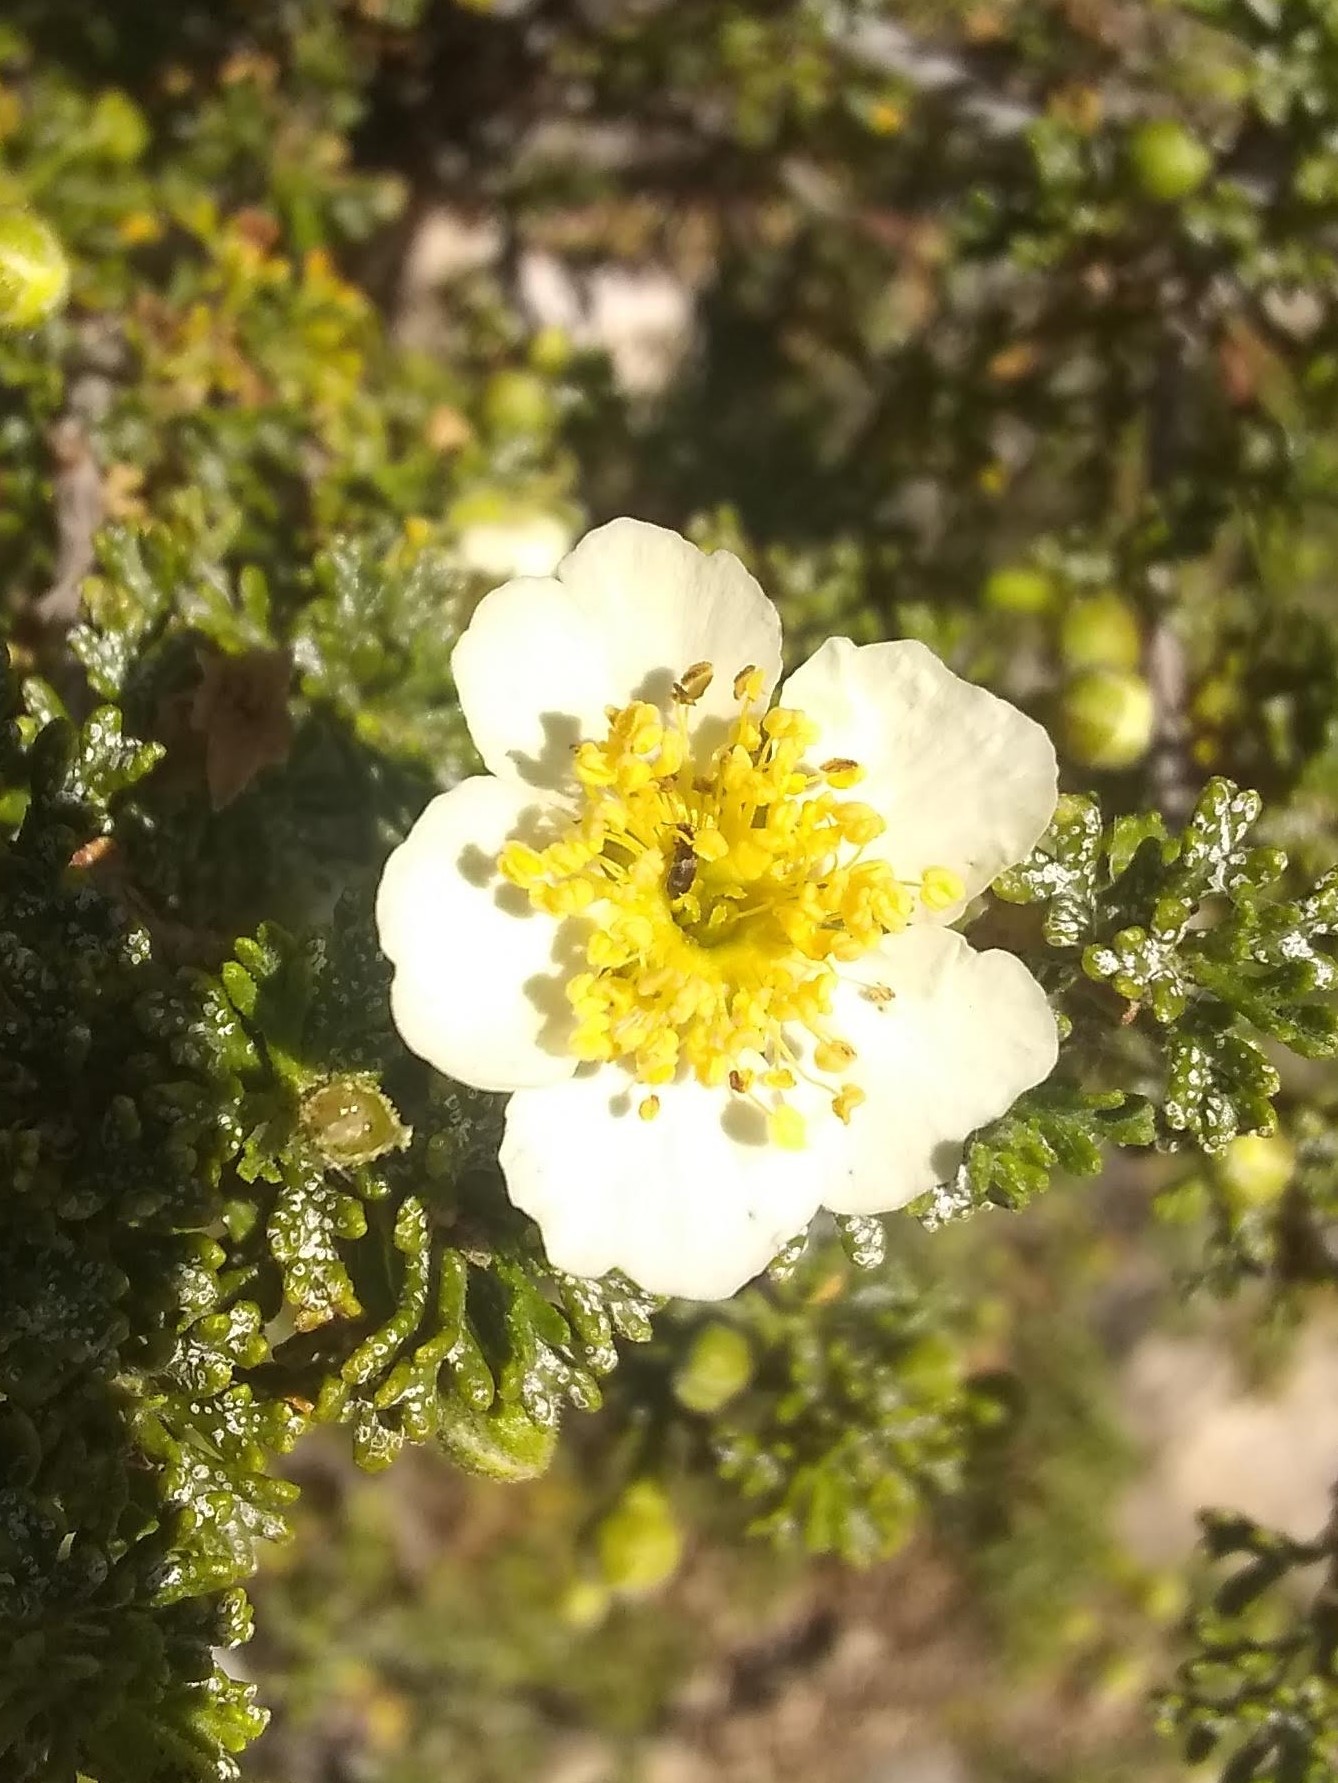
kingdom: Plantae
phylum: Tracheophyta
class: Magnoliopsida
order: Rosales
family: Rosaceae
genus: Fallugia
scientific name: Fallugia paradoxa
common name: Apache-plume
